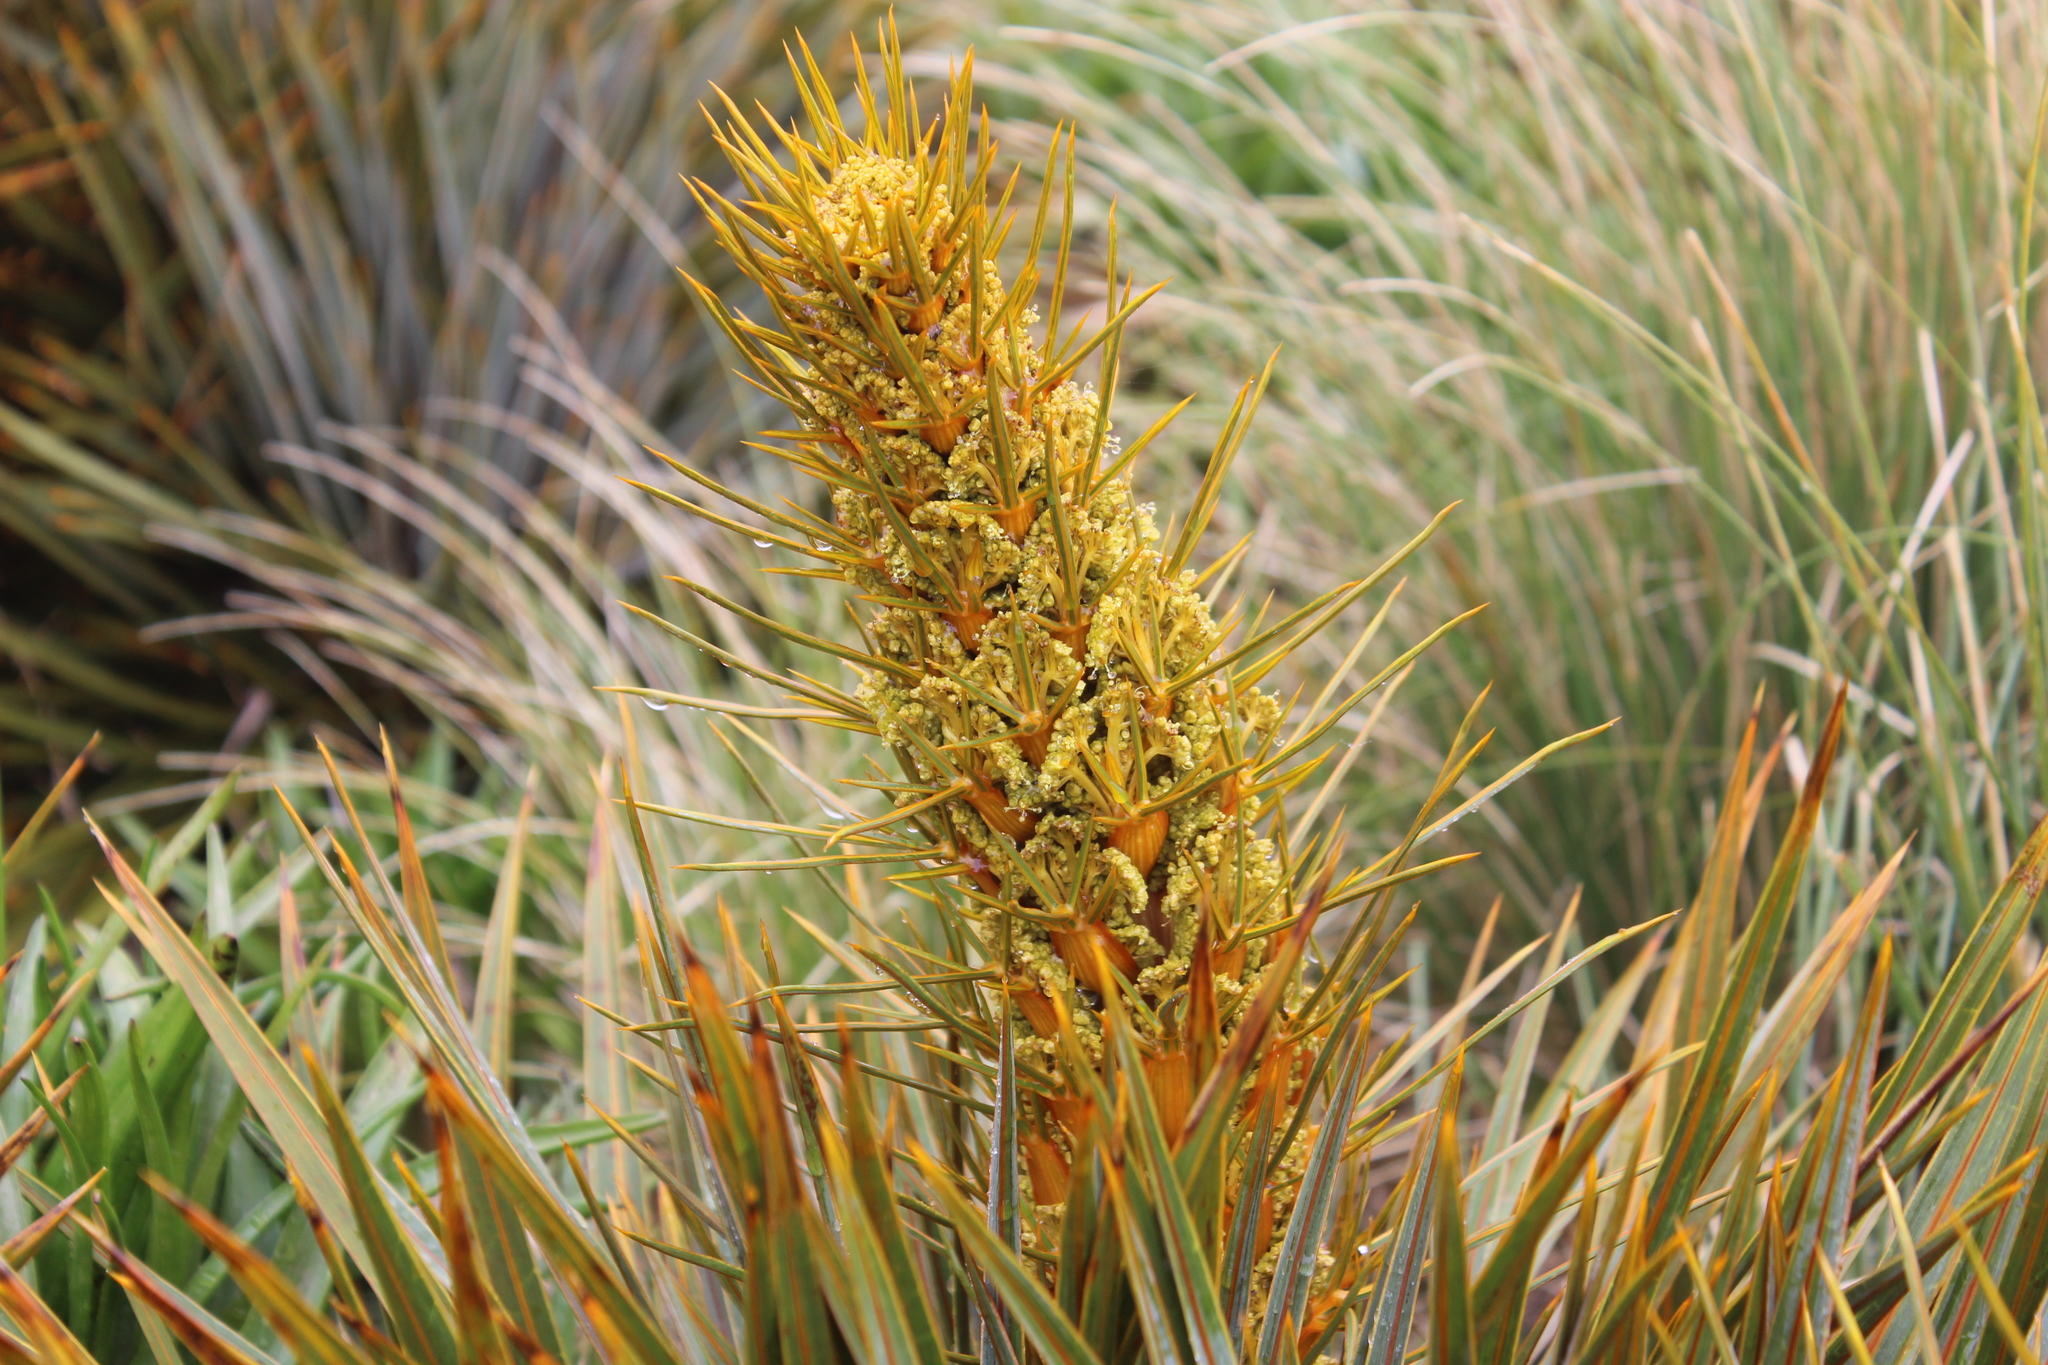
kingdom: Plantae
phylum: Tracheophyta
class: Magnoliopsida
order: Apiales
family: Apiaceae
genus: Aciphylla
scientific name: Aciphylla colensoi
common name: Colenso's spaniard
